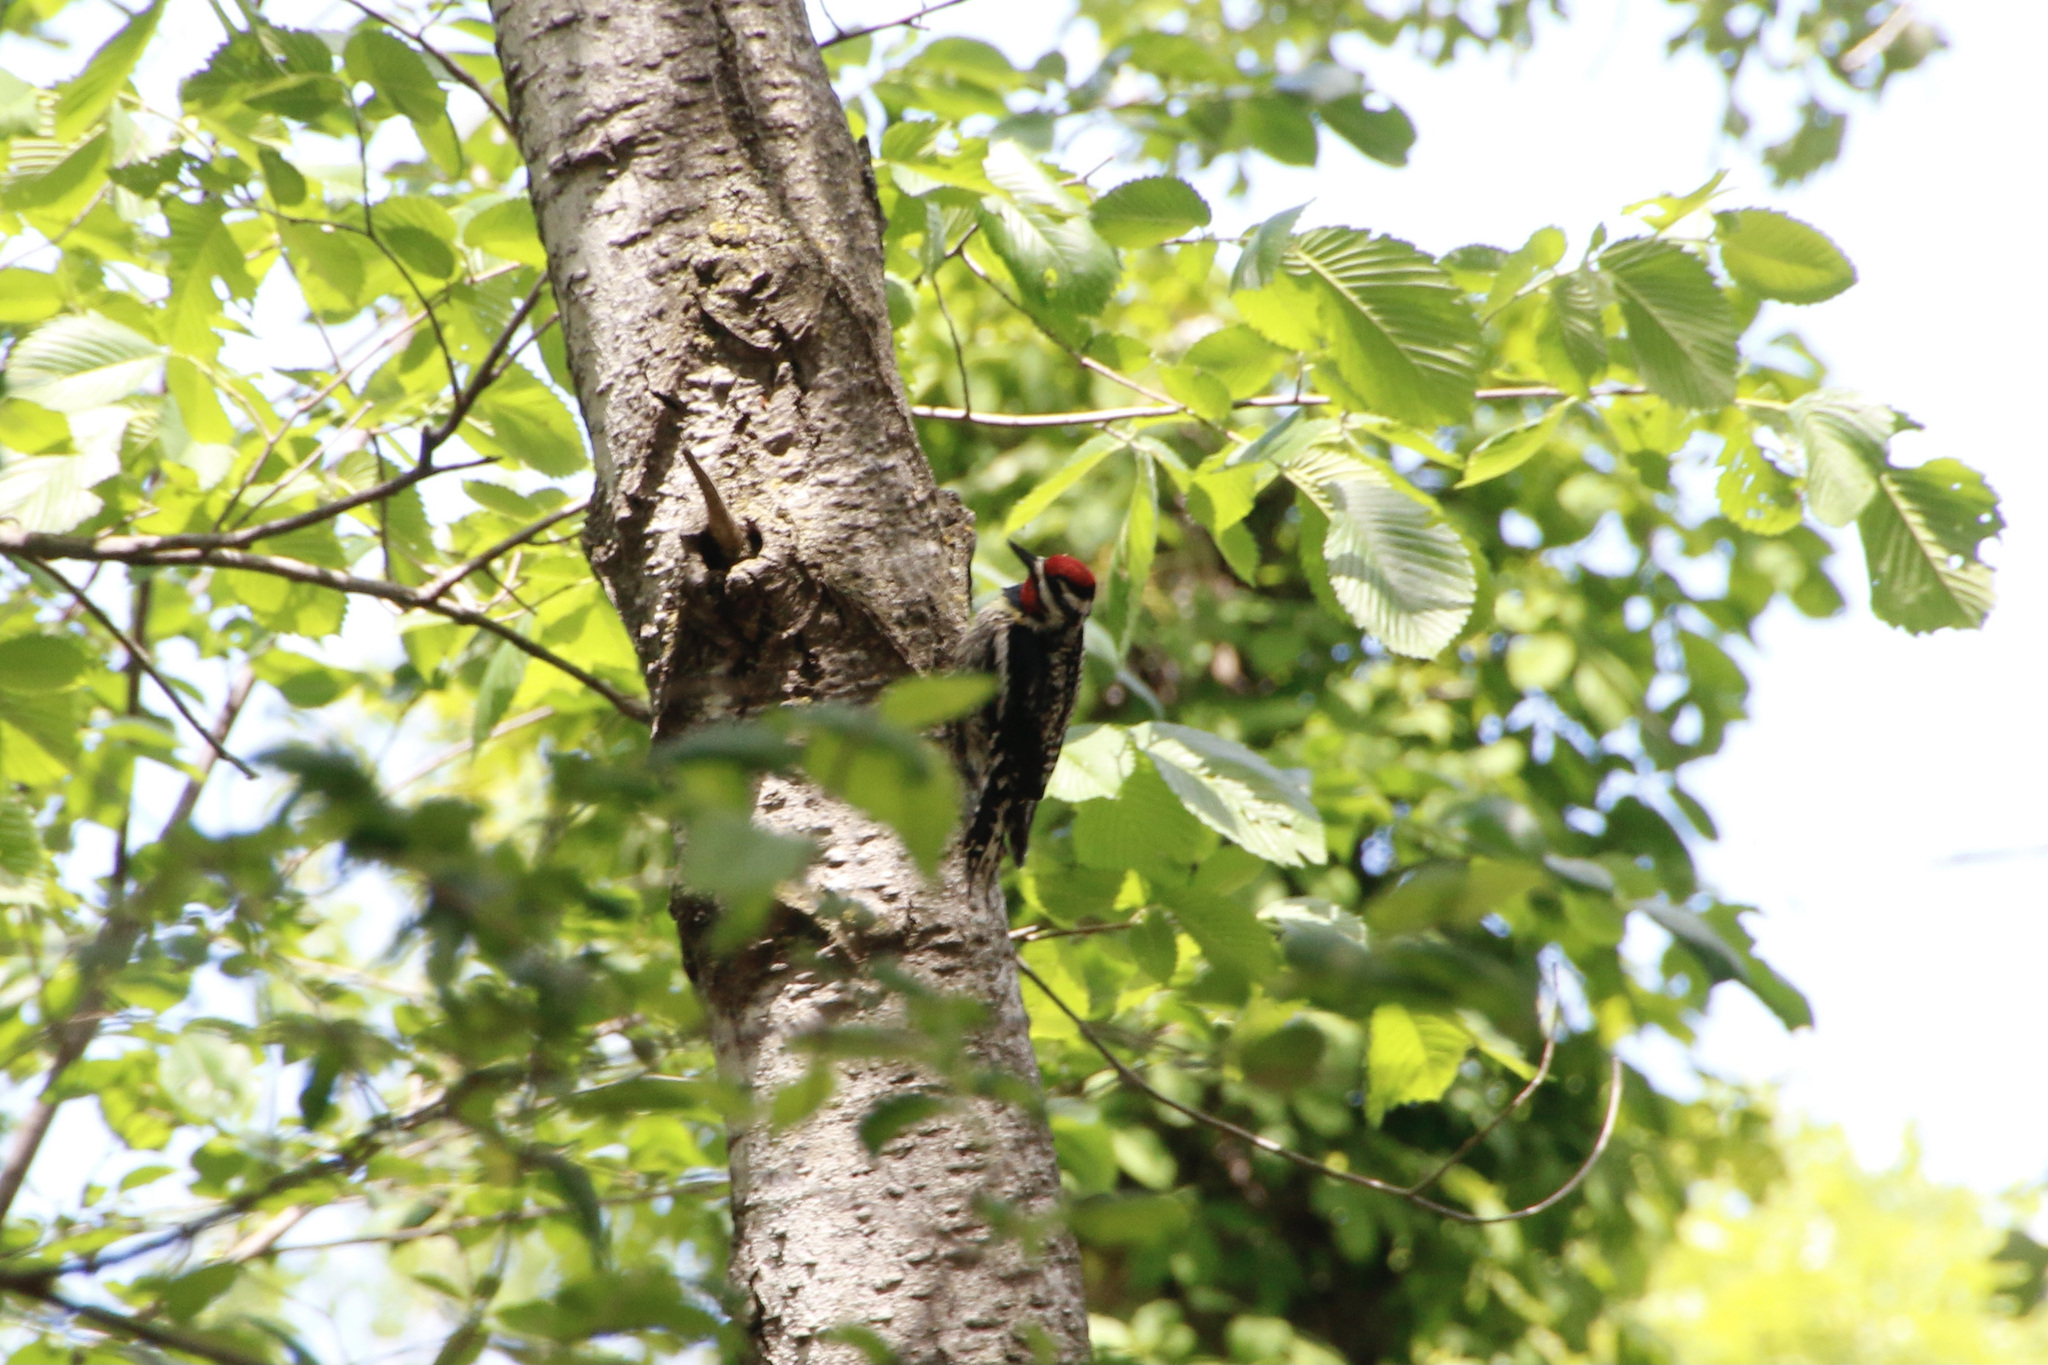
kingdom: Animalia
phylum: Chordata
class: Aves
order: Piciformes
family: Picidae
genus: Sphyrapicus
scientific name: Sphyrapicus varius
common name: Yellow-bellied sapsucker
